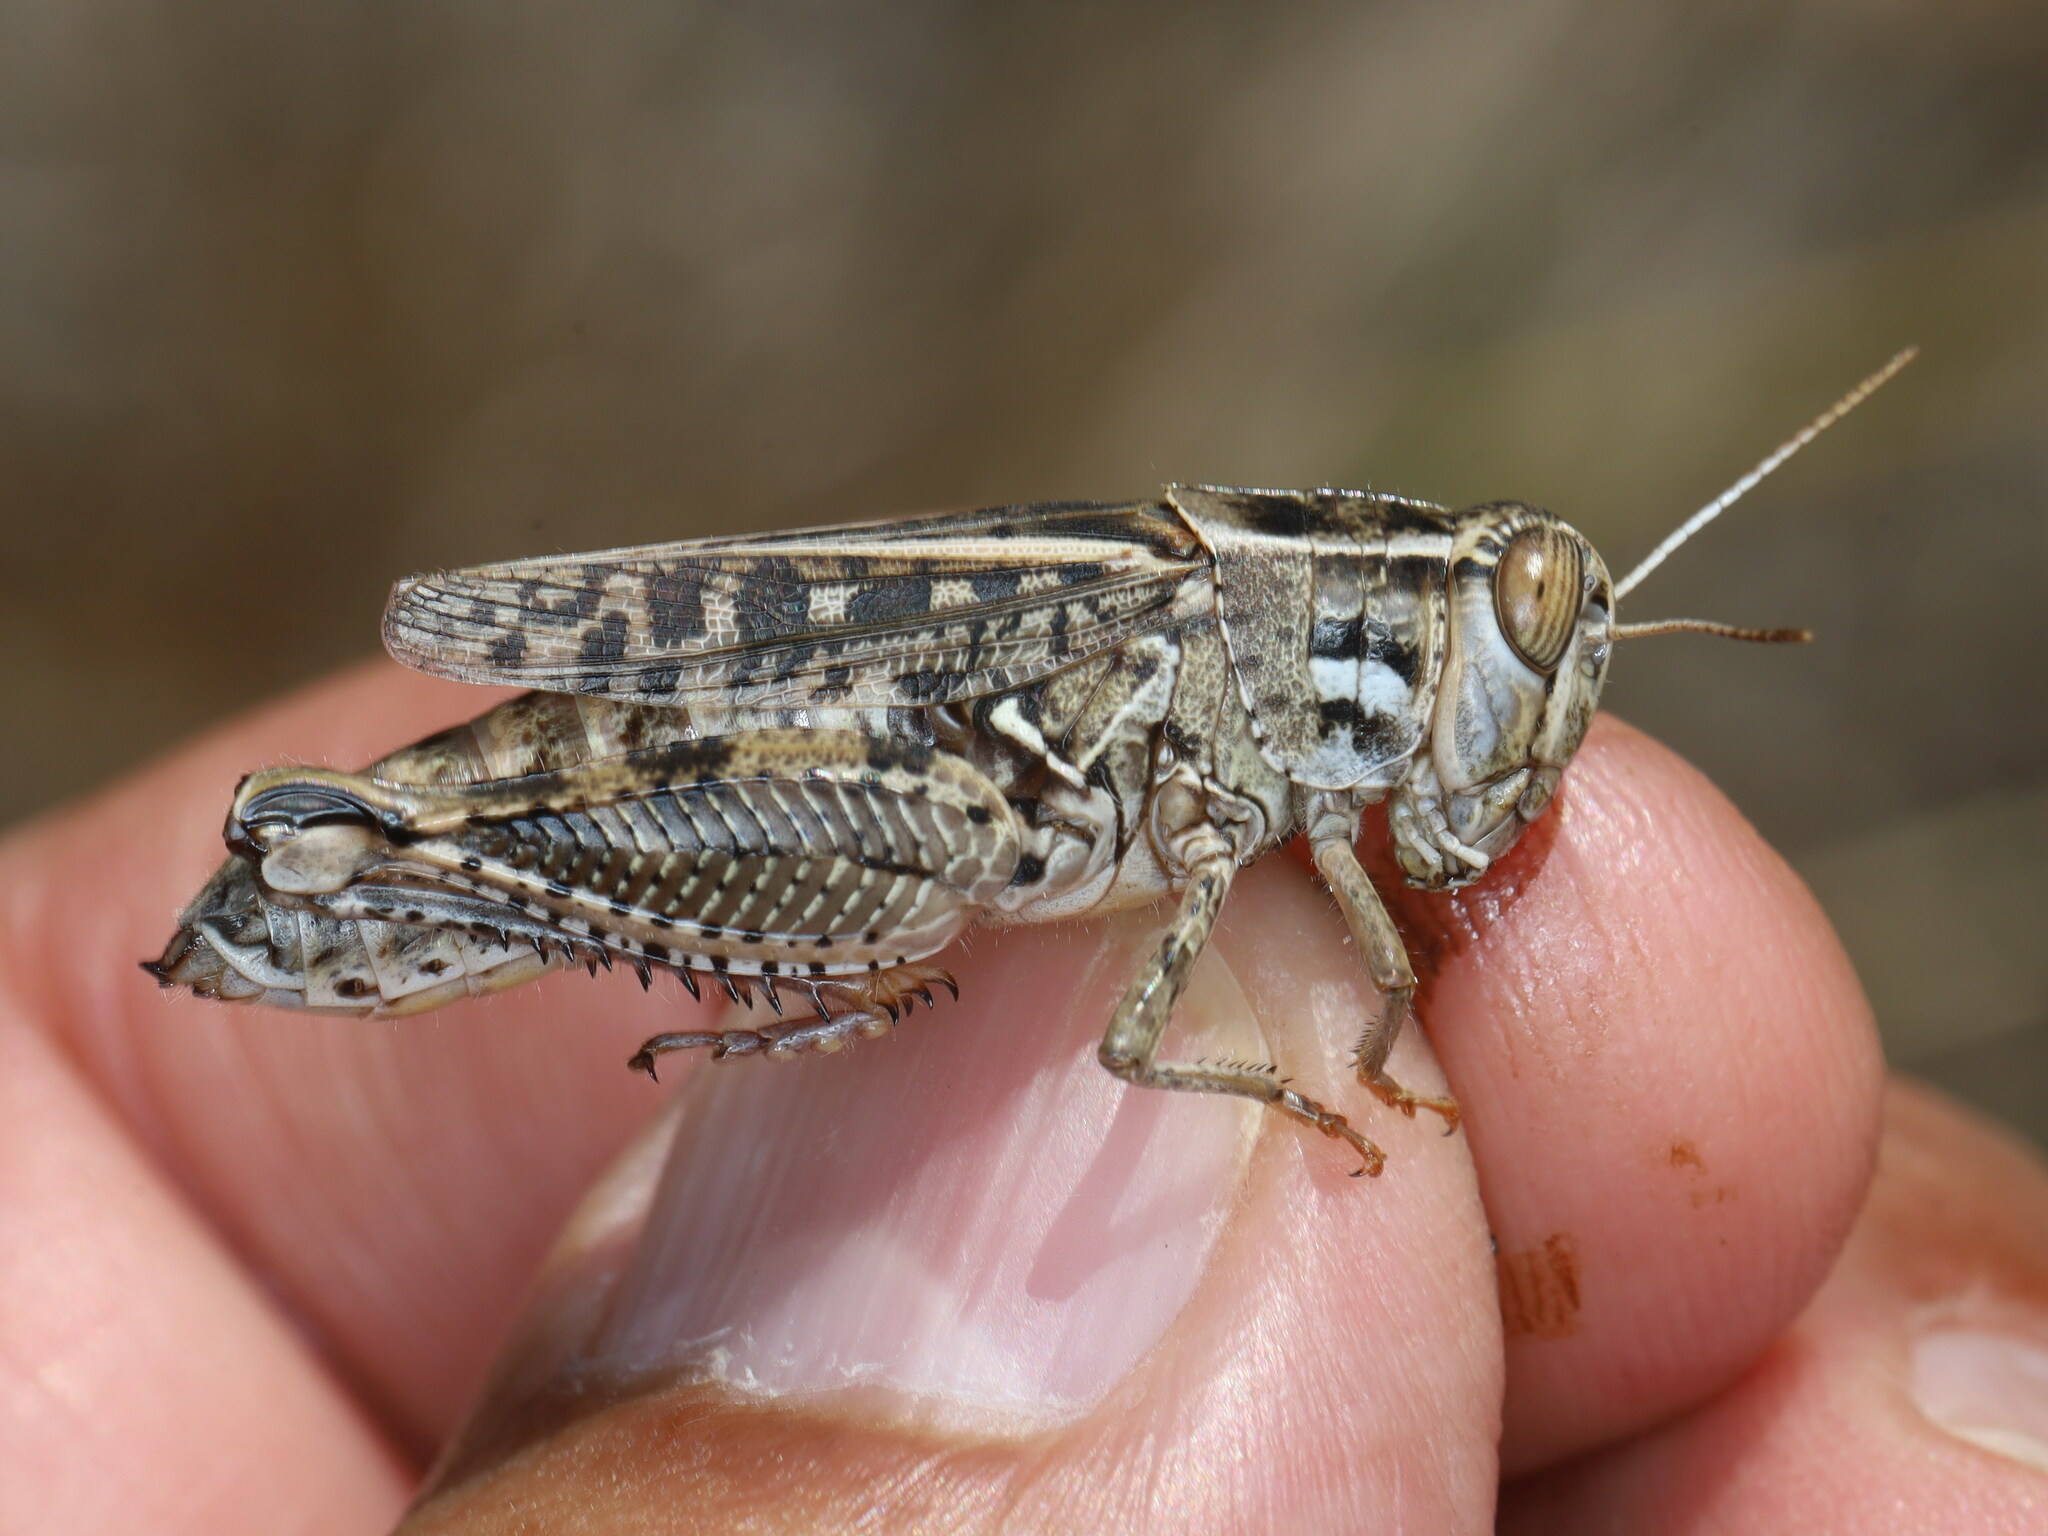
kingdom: Animalia
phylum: Arthropoda
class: Insecta
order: Orthoptera
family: Acrididae
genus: Calliptamus
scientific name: Calliptamus wattenwylianus
